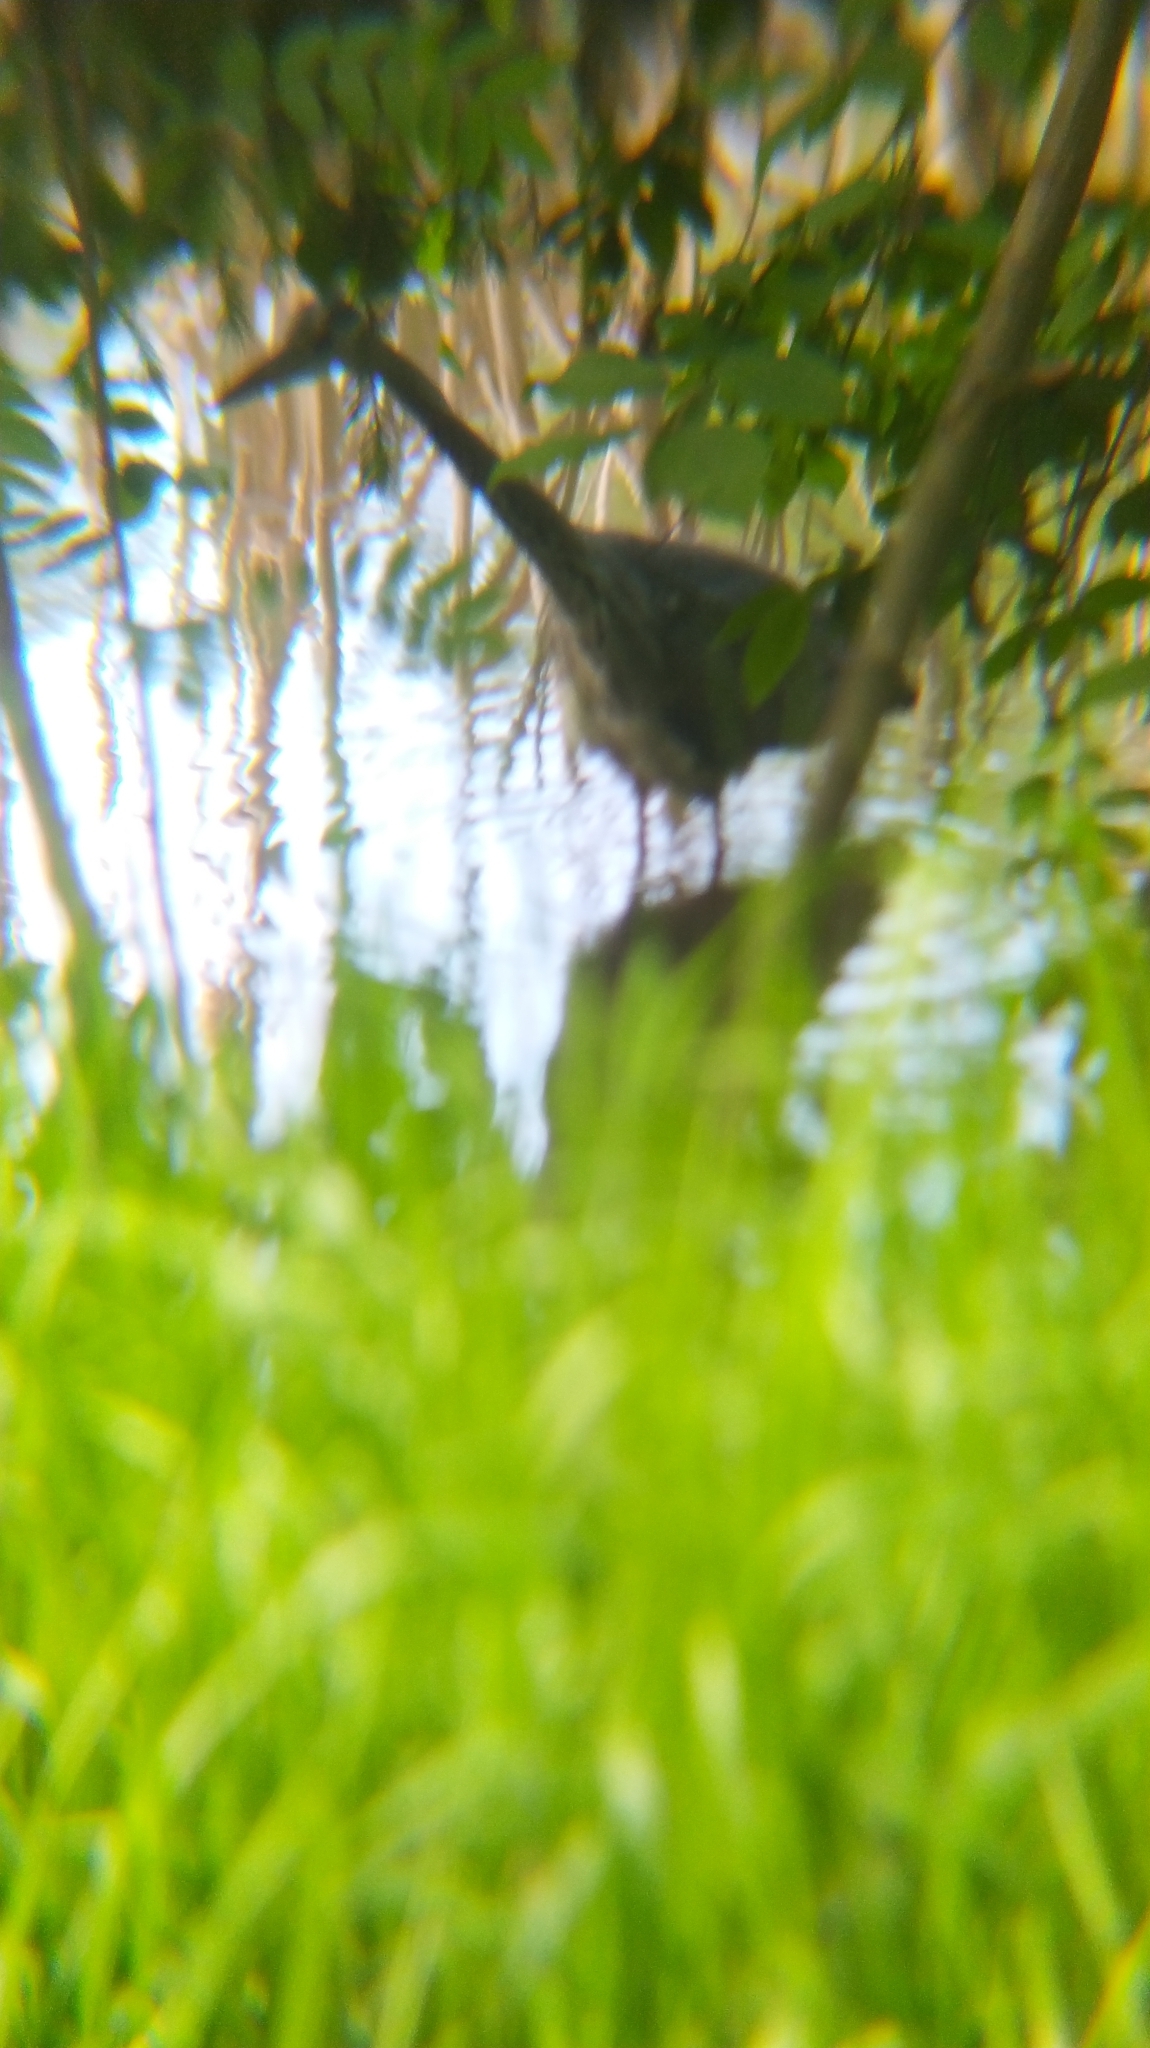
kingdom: Animalia
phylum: Chordata
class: Aves
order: Pelecaniformes
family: Ardeidae
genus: Ardea
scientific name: Ardea cinerea
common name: Grey heron
